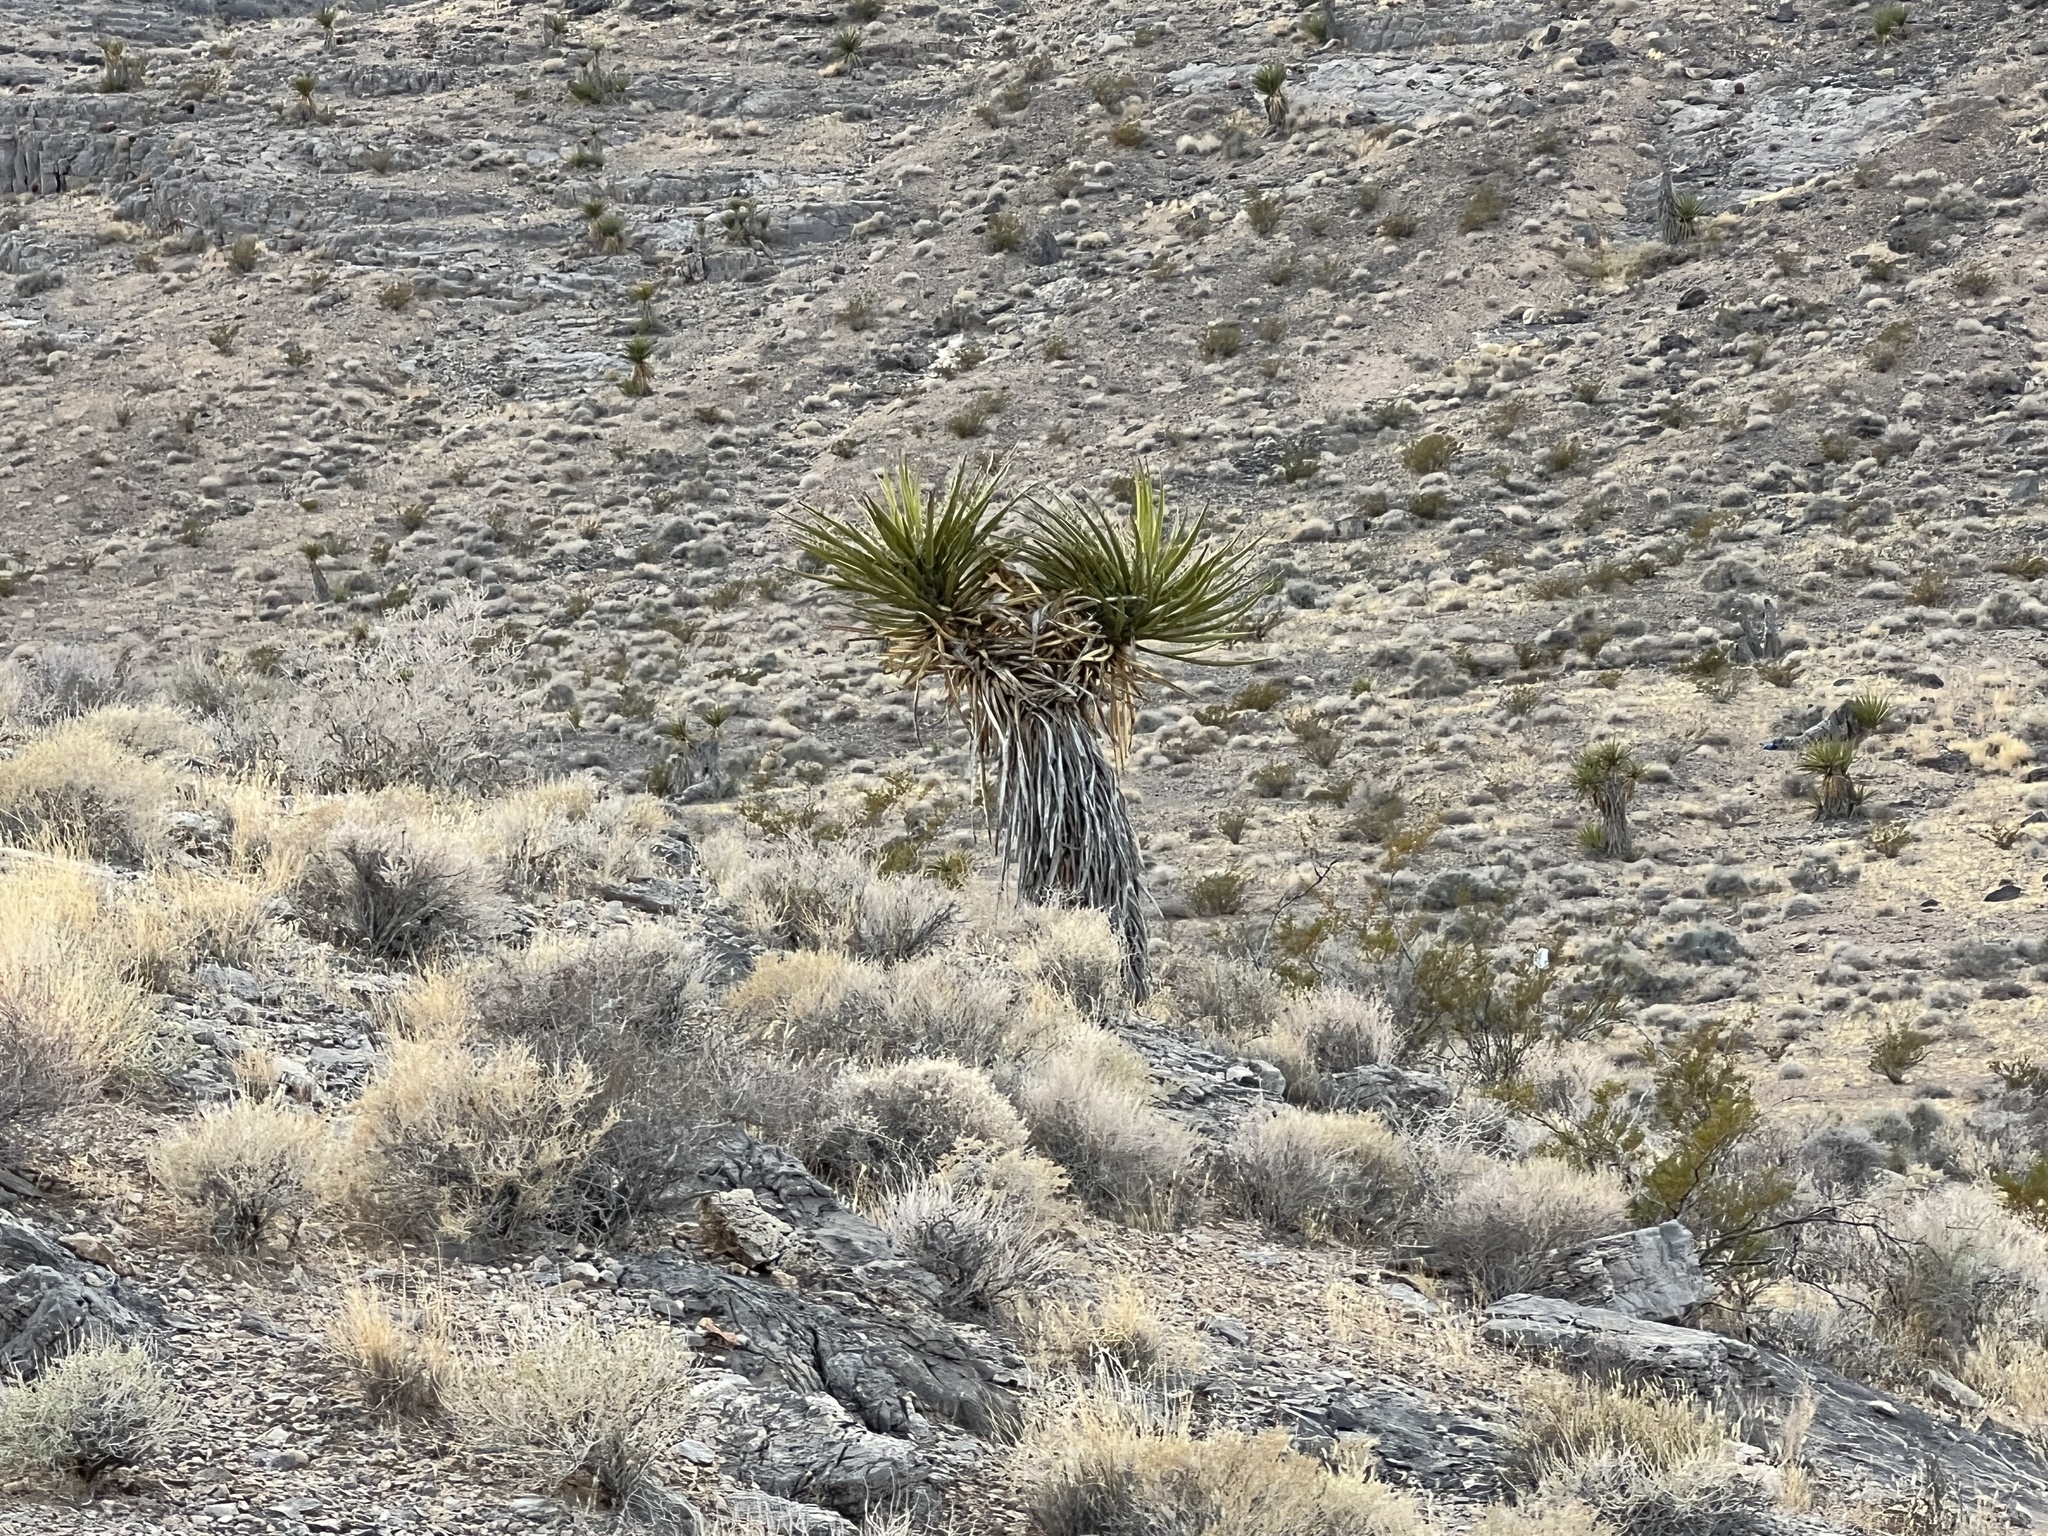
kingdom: Plantae
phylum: Tracheophyta
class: Liliopsida
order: Asparagales
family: Asparagaceae
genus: Yucca
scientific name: Yucca schidigera
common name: Mojave yucca
